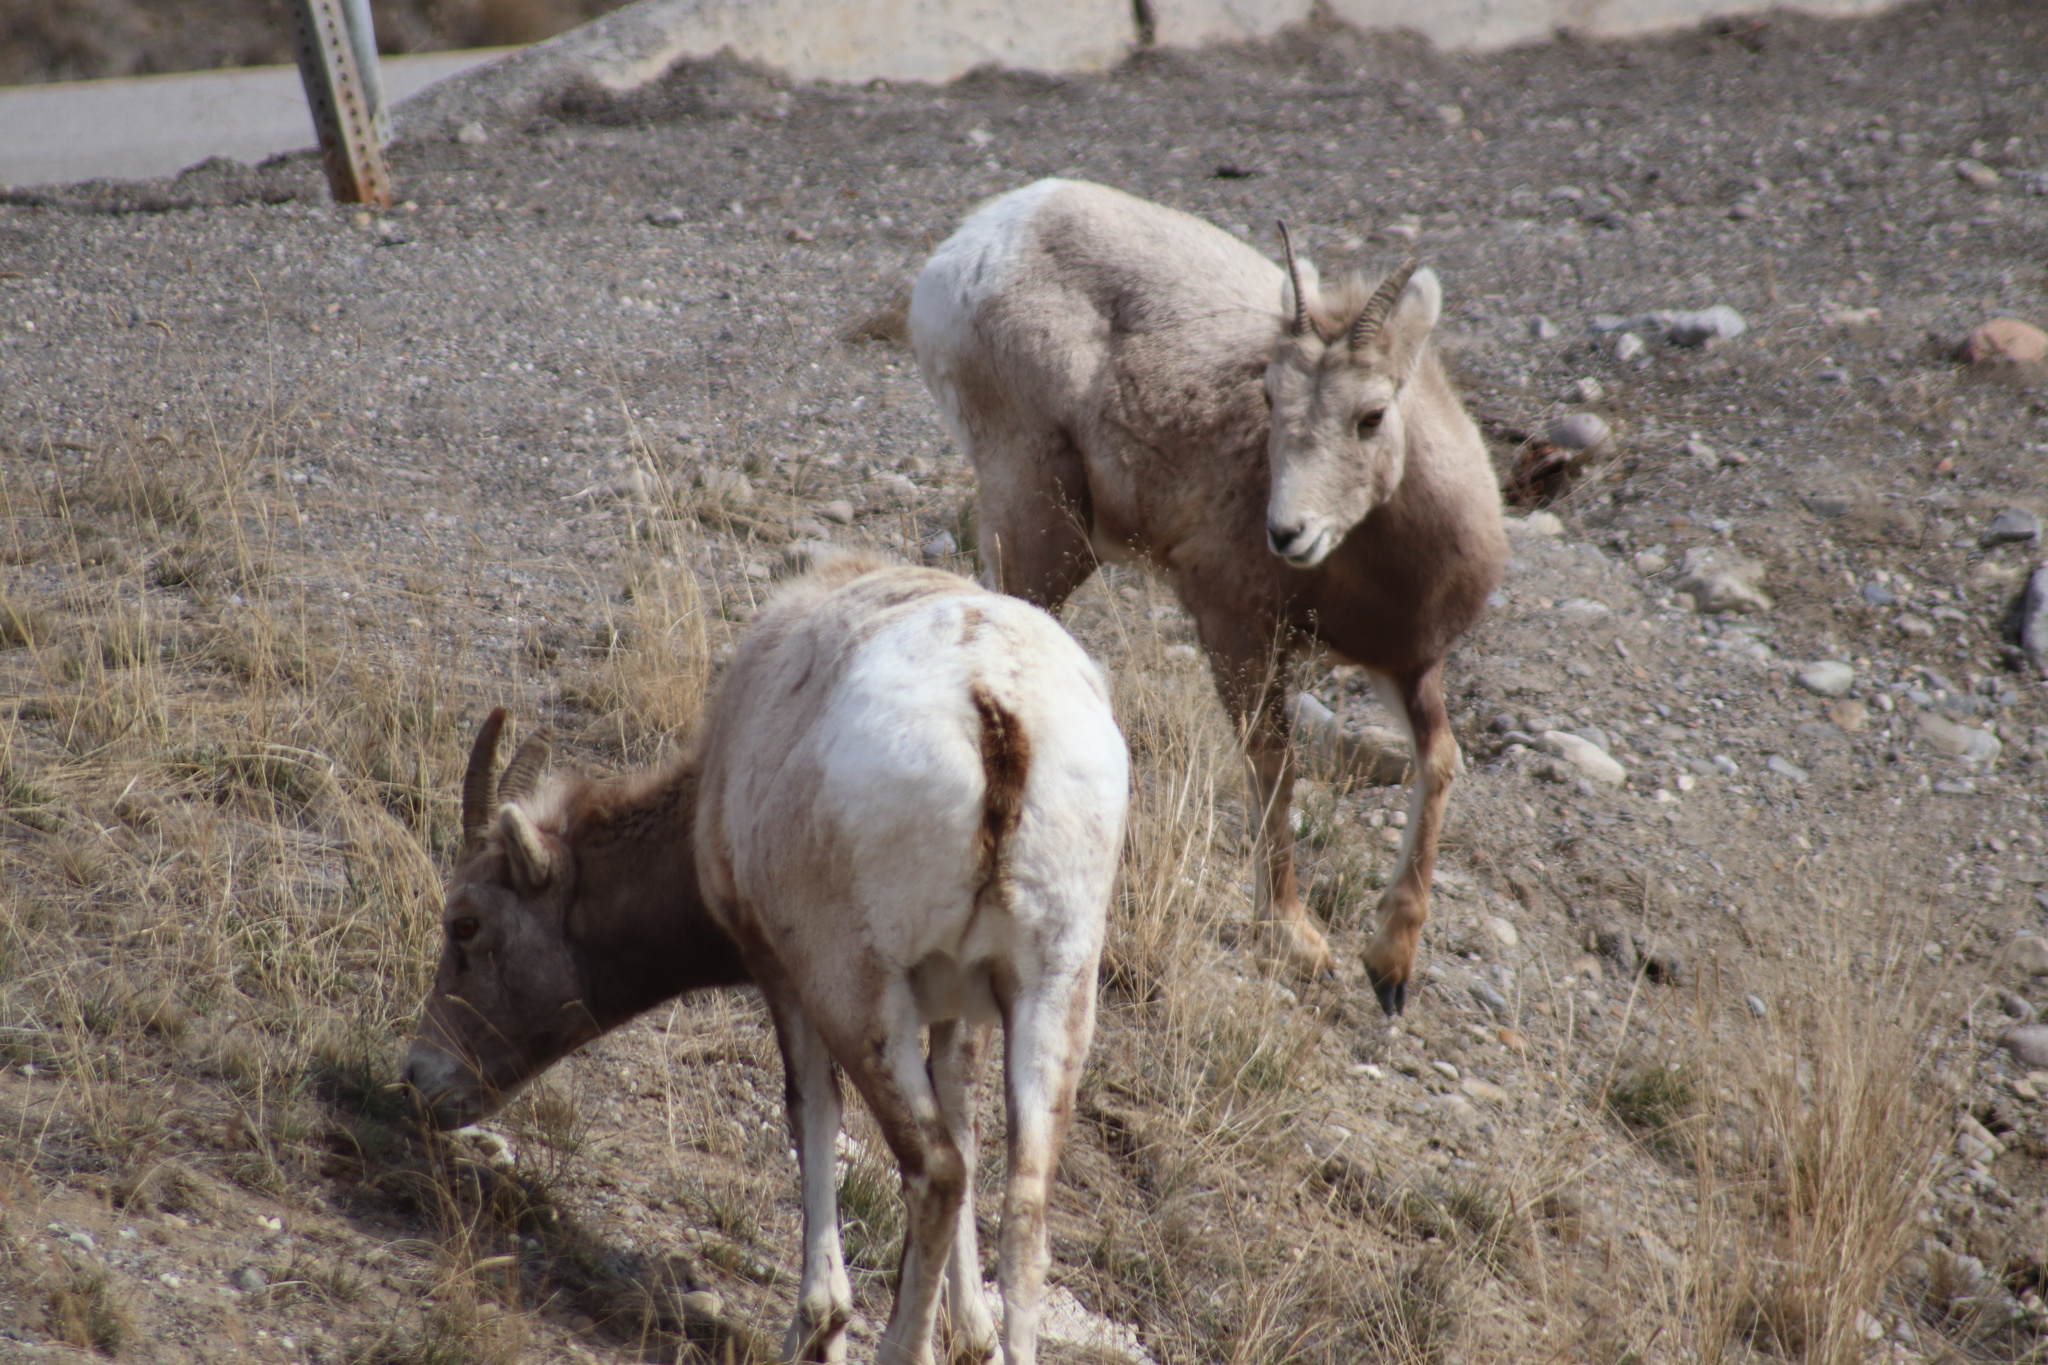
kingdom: Animalia
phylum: Chordata
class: Mammalia
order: Artiodactyla
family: Bovidae
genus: Ovis
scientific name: Ovis canadensis
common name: Bighorn sheep
